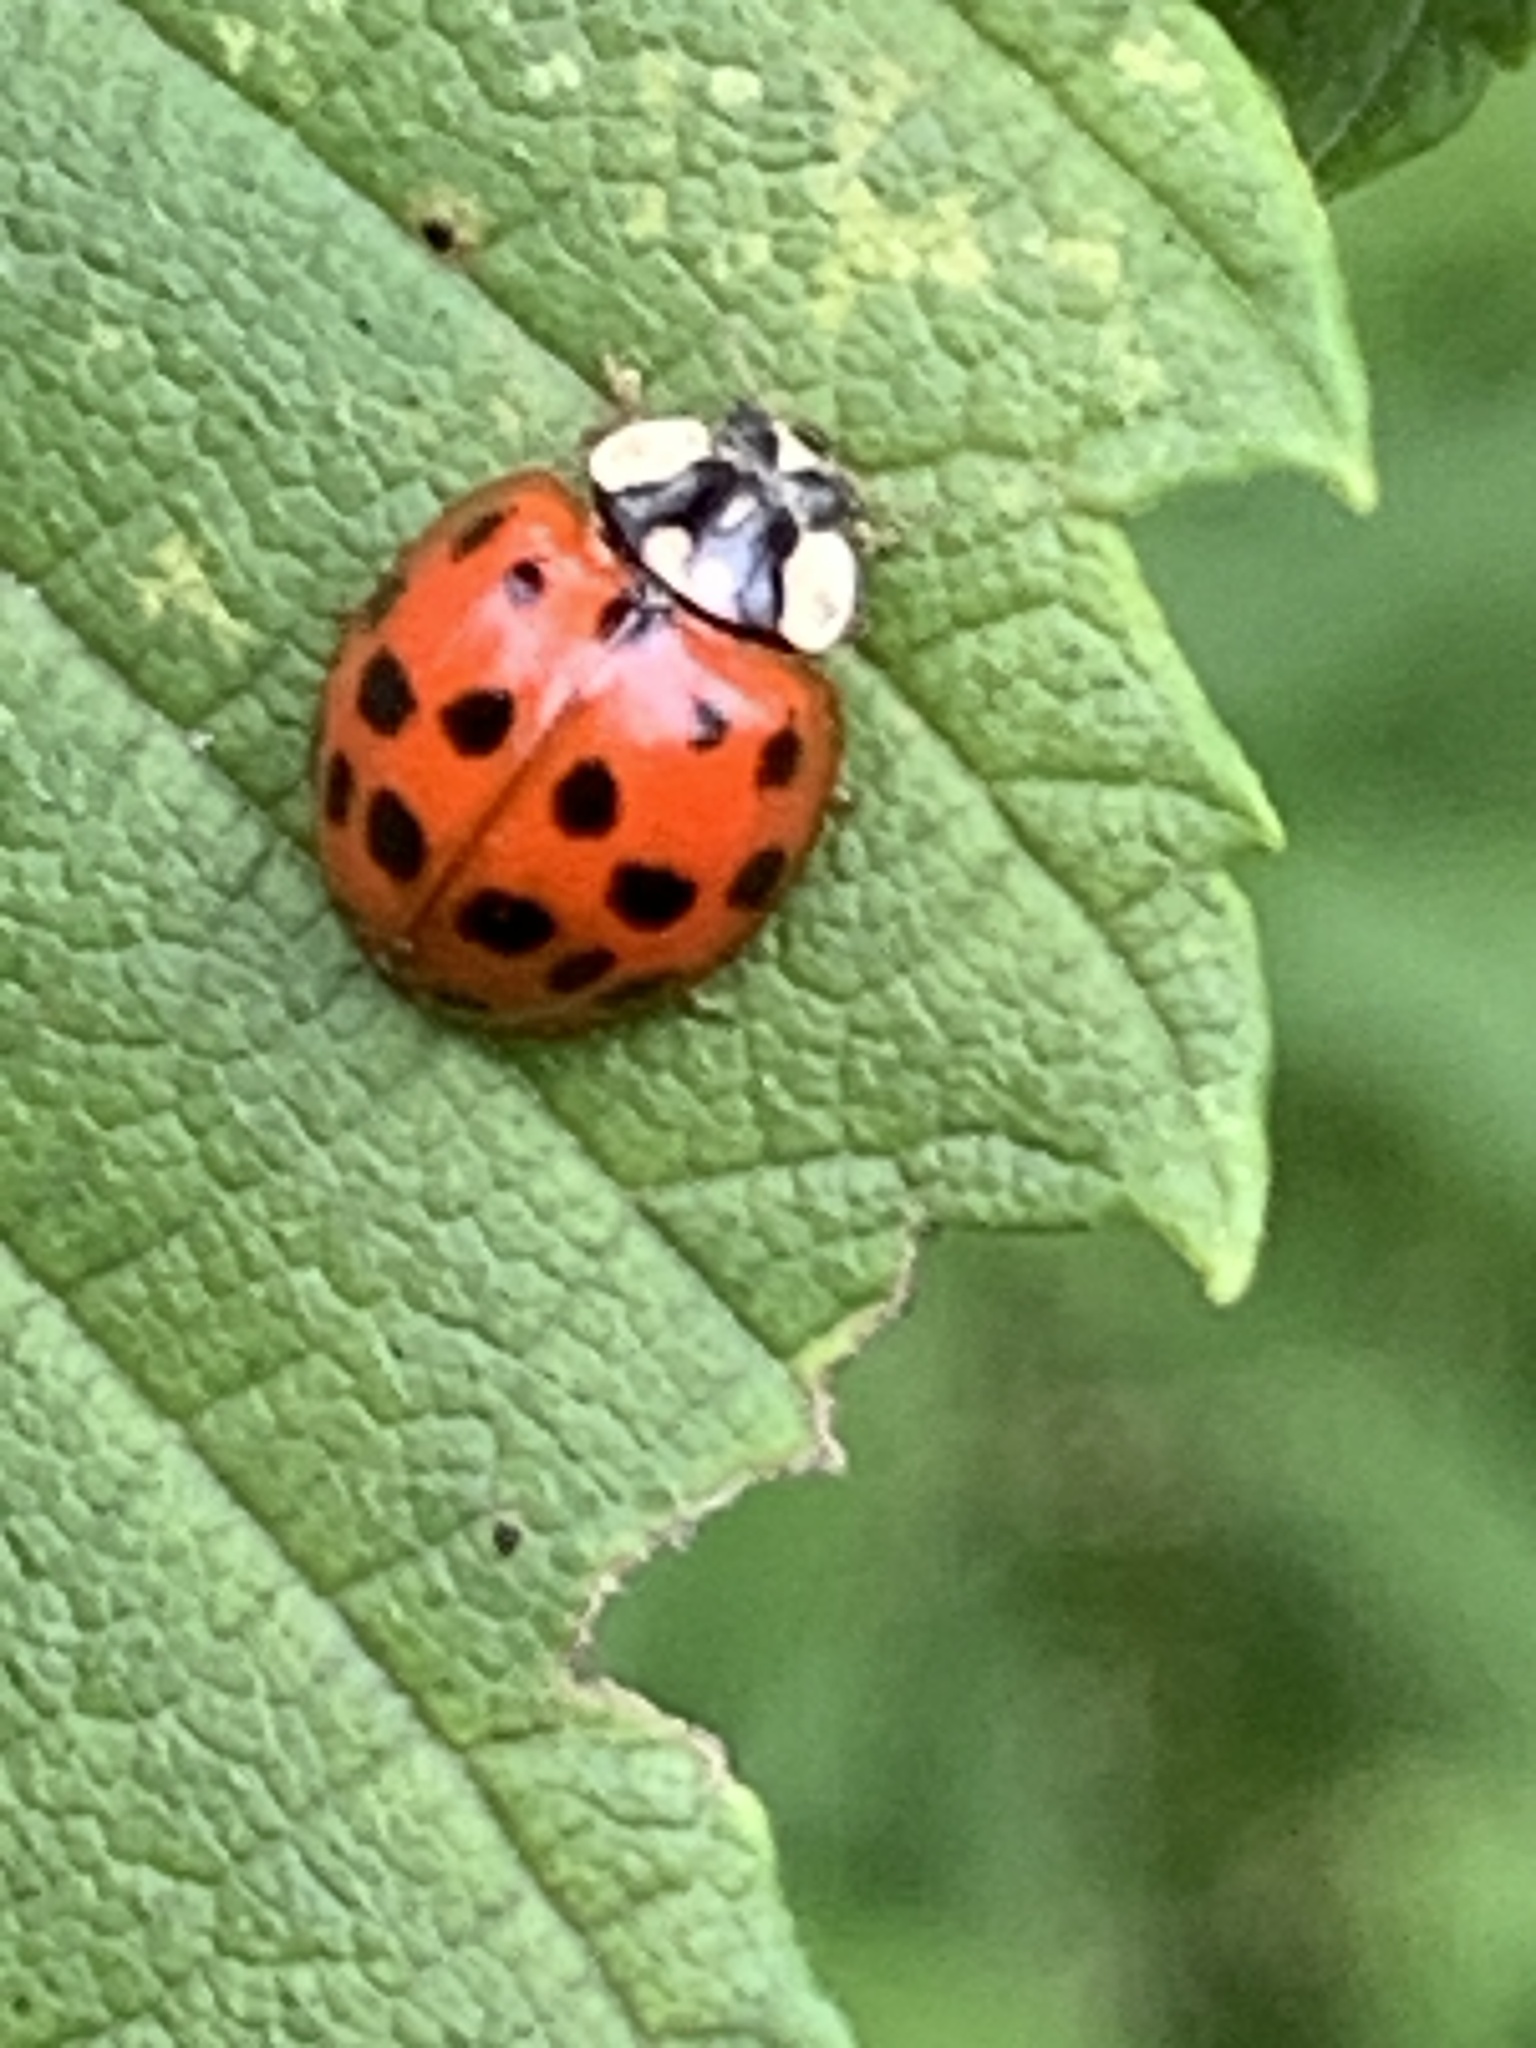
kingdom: Animalia
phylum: Arthropoda
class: Insecta
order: Coleoptera
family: Coccinellidae
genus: Harmonia
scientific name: Harmonia axyridis
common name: Harlequin ladybird
